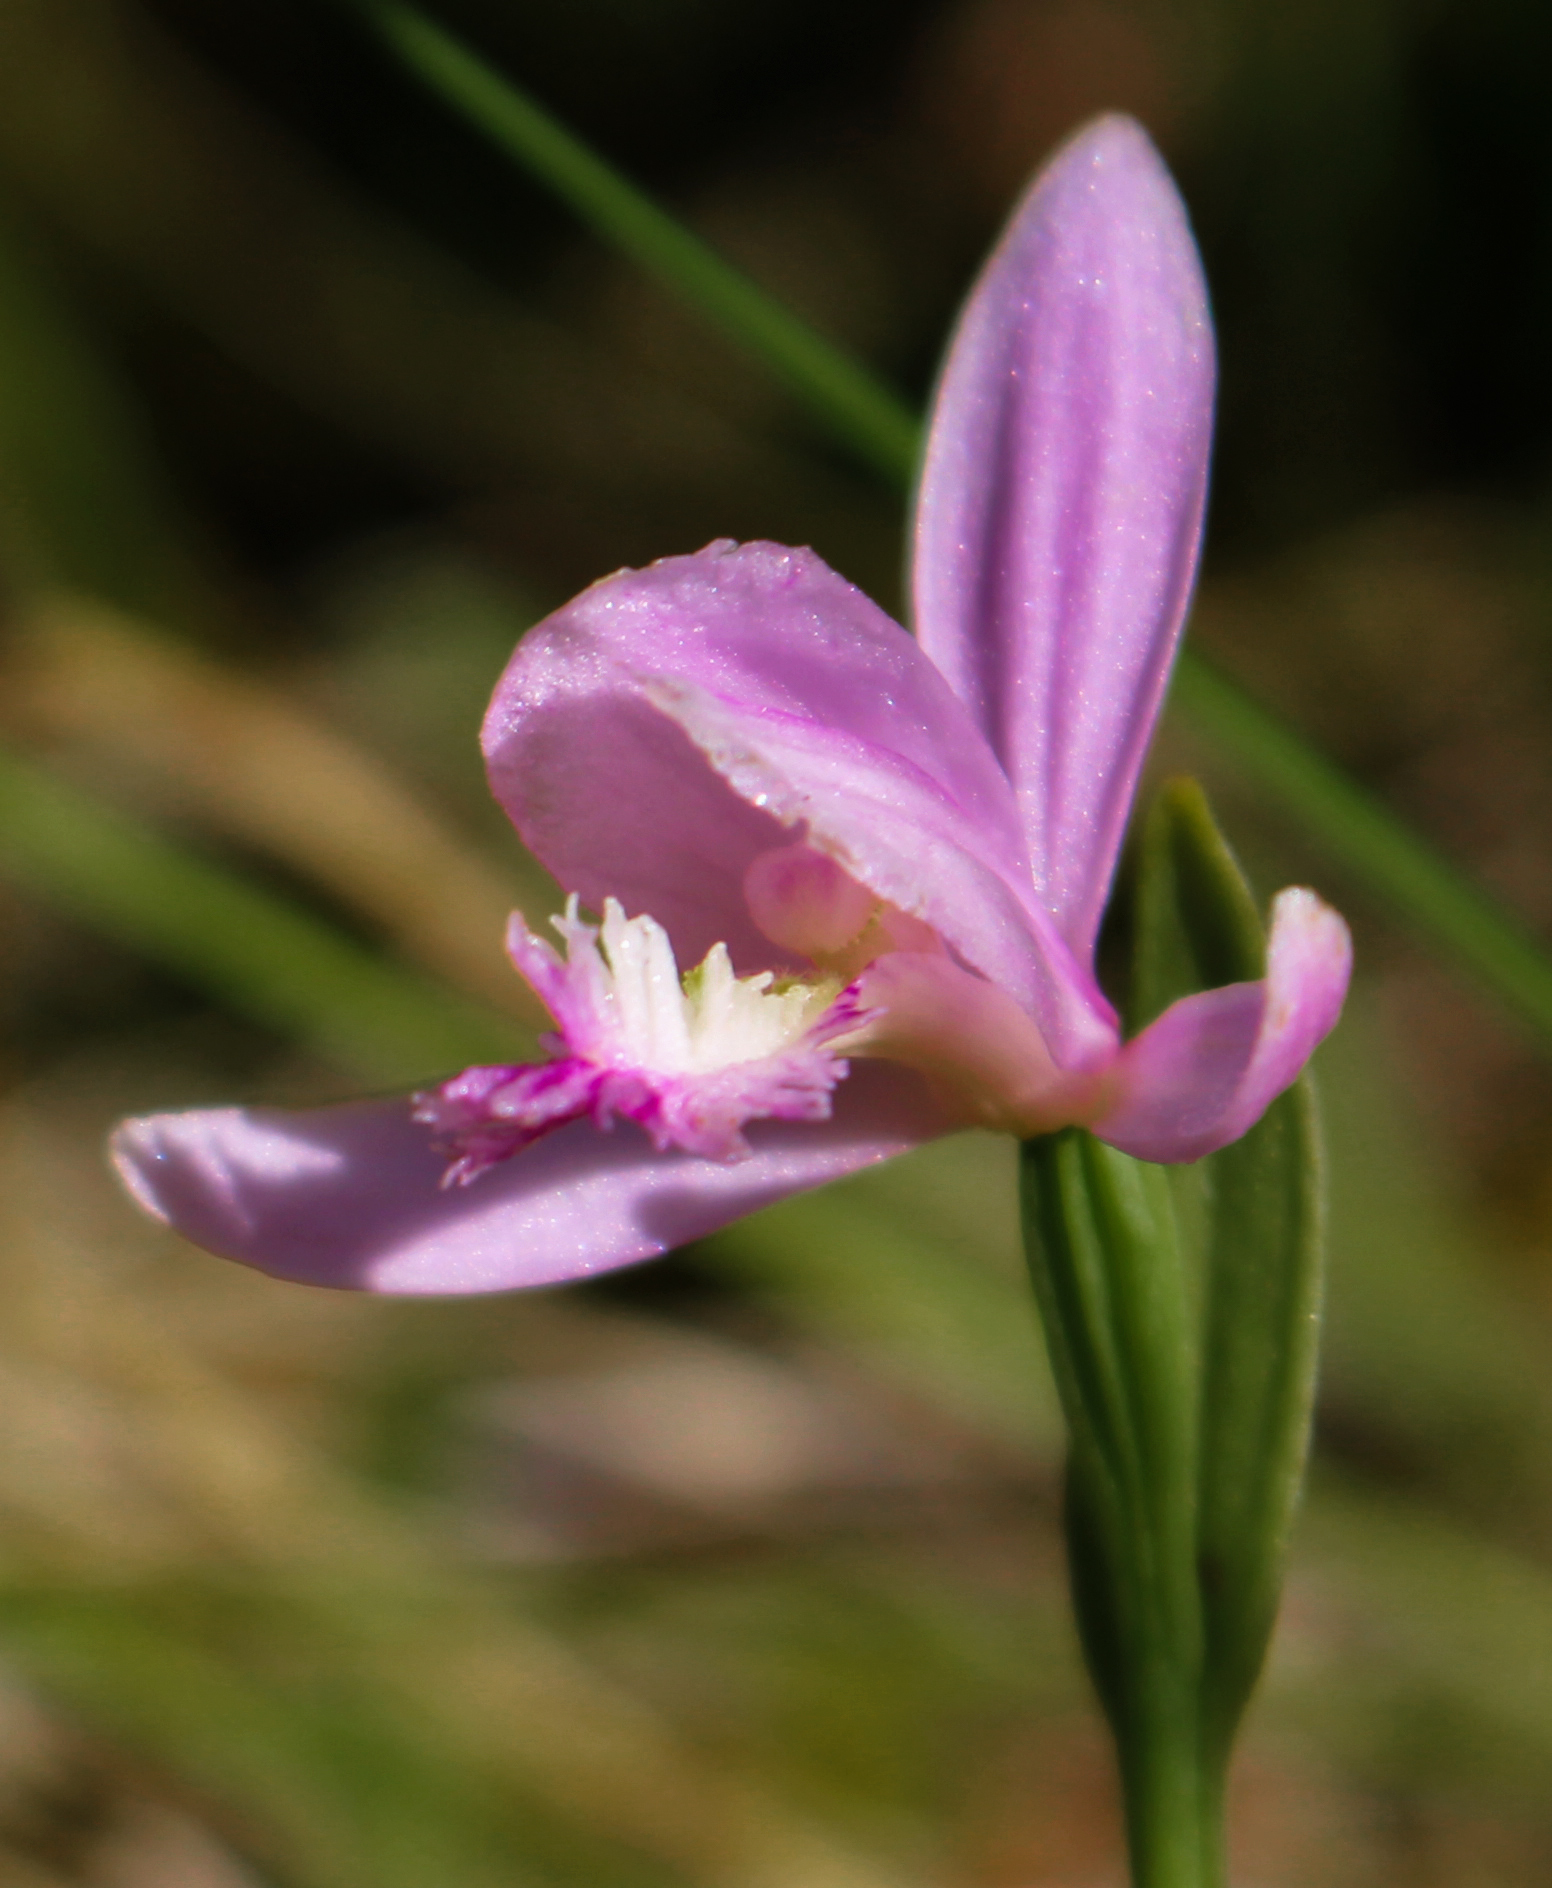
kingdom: Plantae
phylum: Tracheophyta
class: Liliopsida
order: Asparagales
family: Orchidaceae
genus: Pogonia
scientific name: Pogonia ophioglossoides
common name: Rose pogonia
